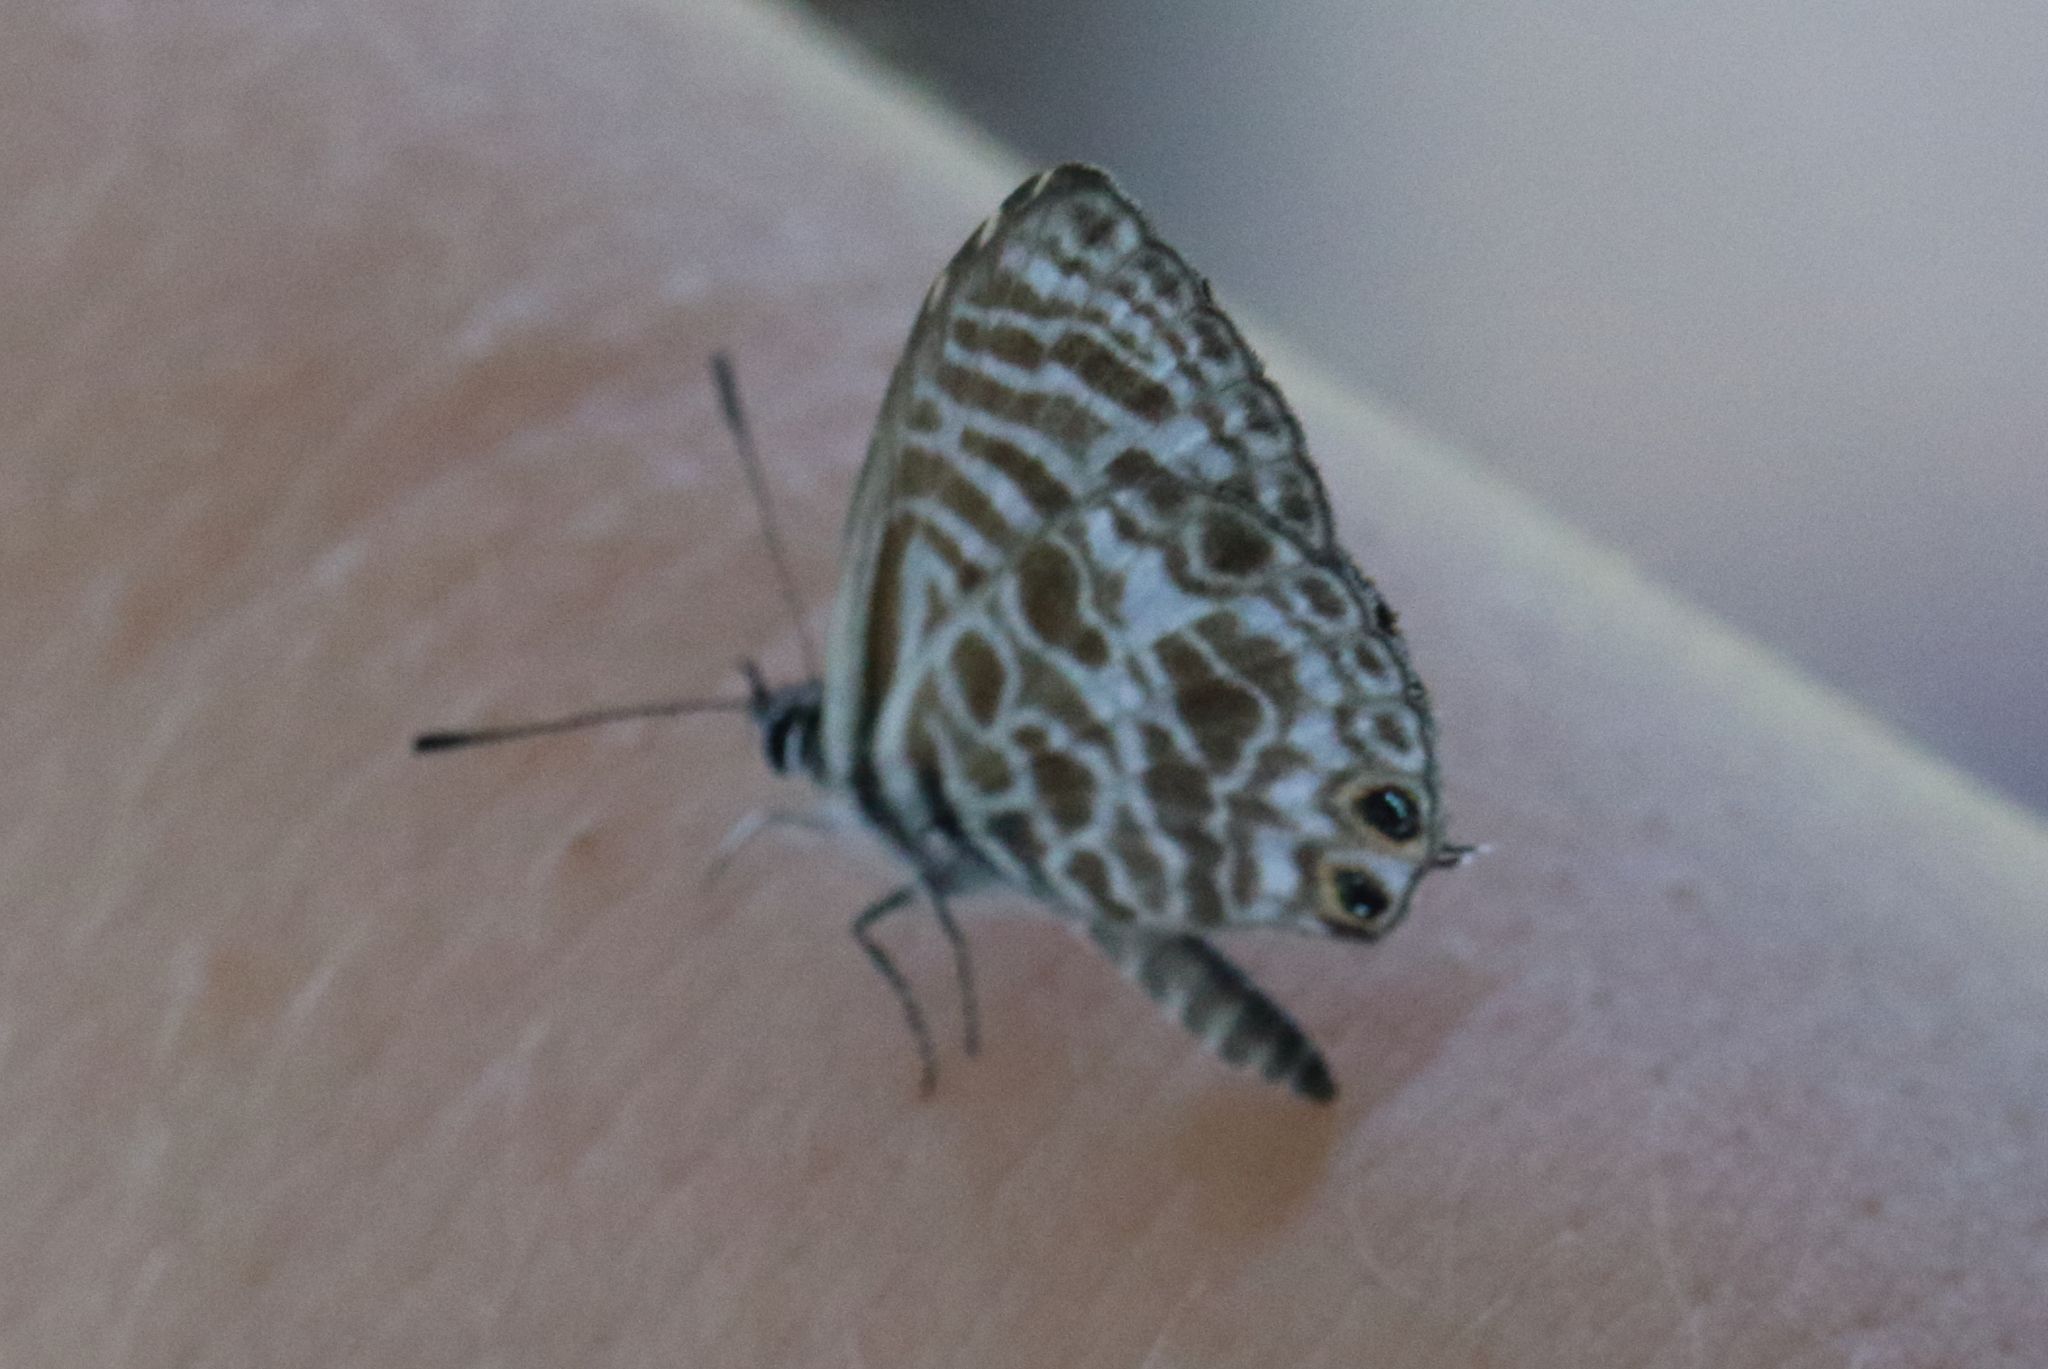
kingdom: Animalia
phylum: Arthropoda
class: Insecta
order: Lepidoptera
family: Lycaenidae
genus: Leptotes
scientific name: Leptotes plinius
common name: Zebra blue
